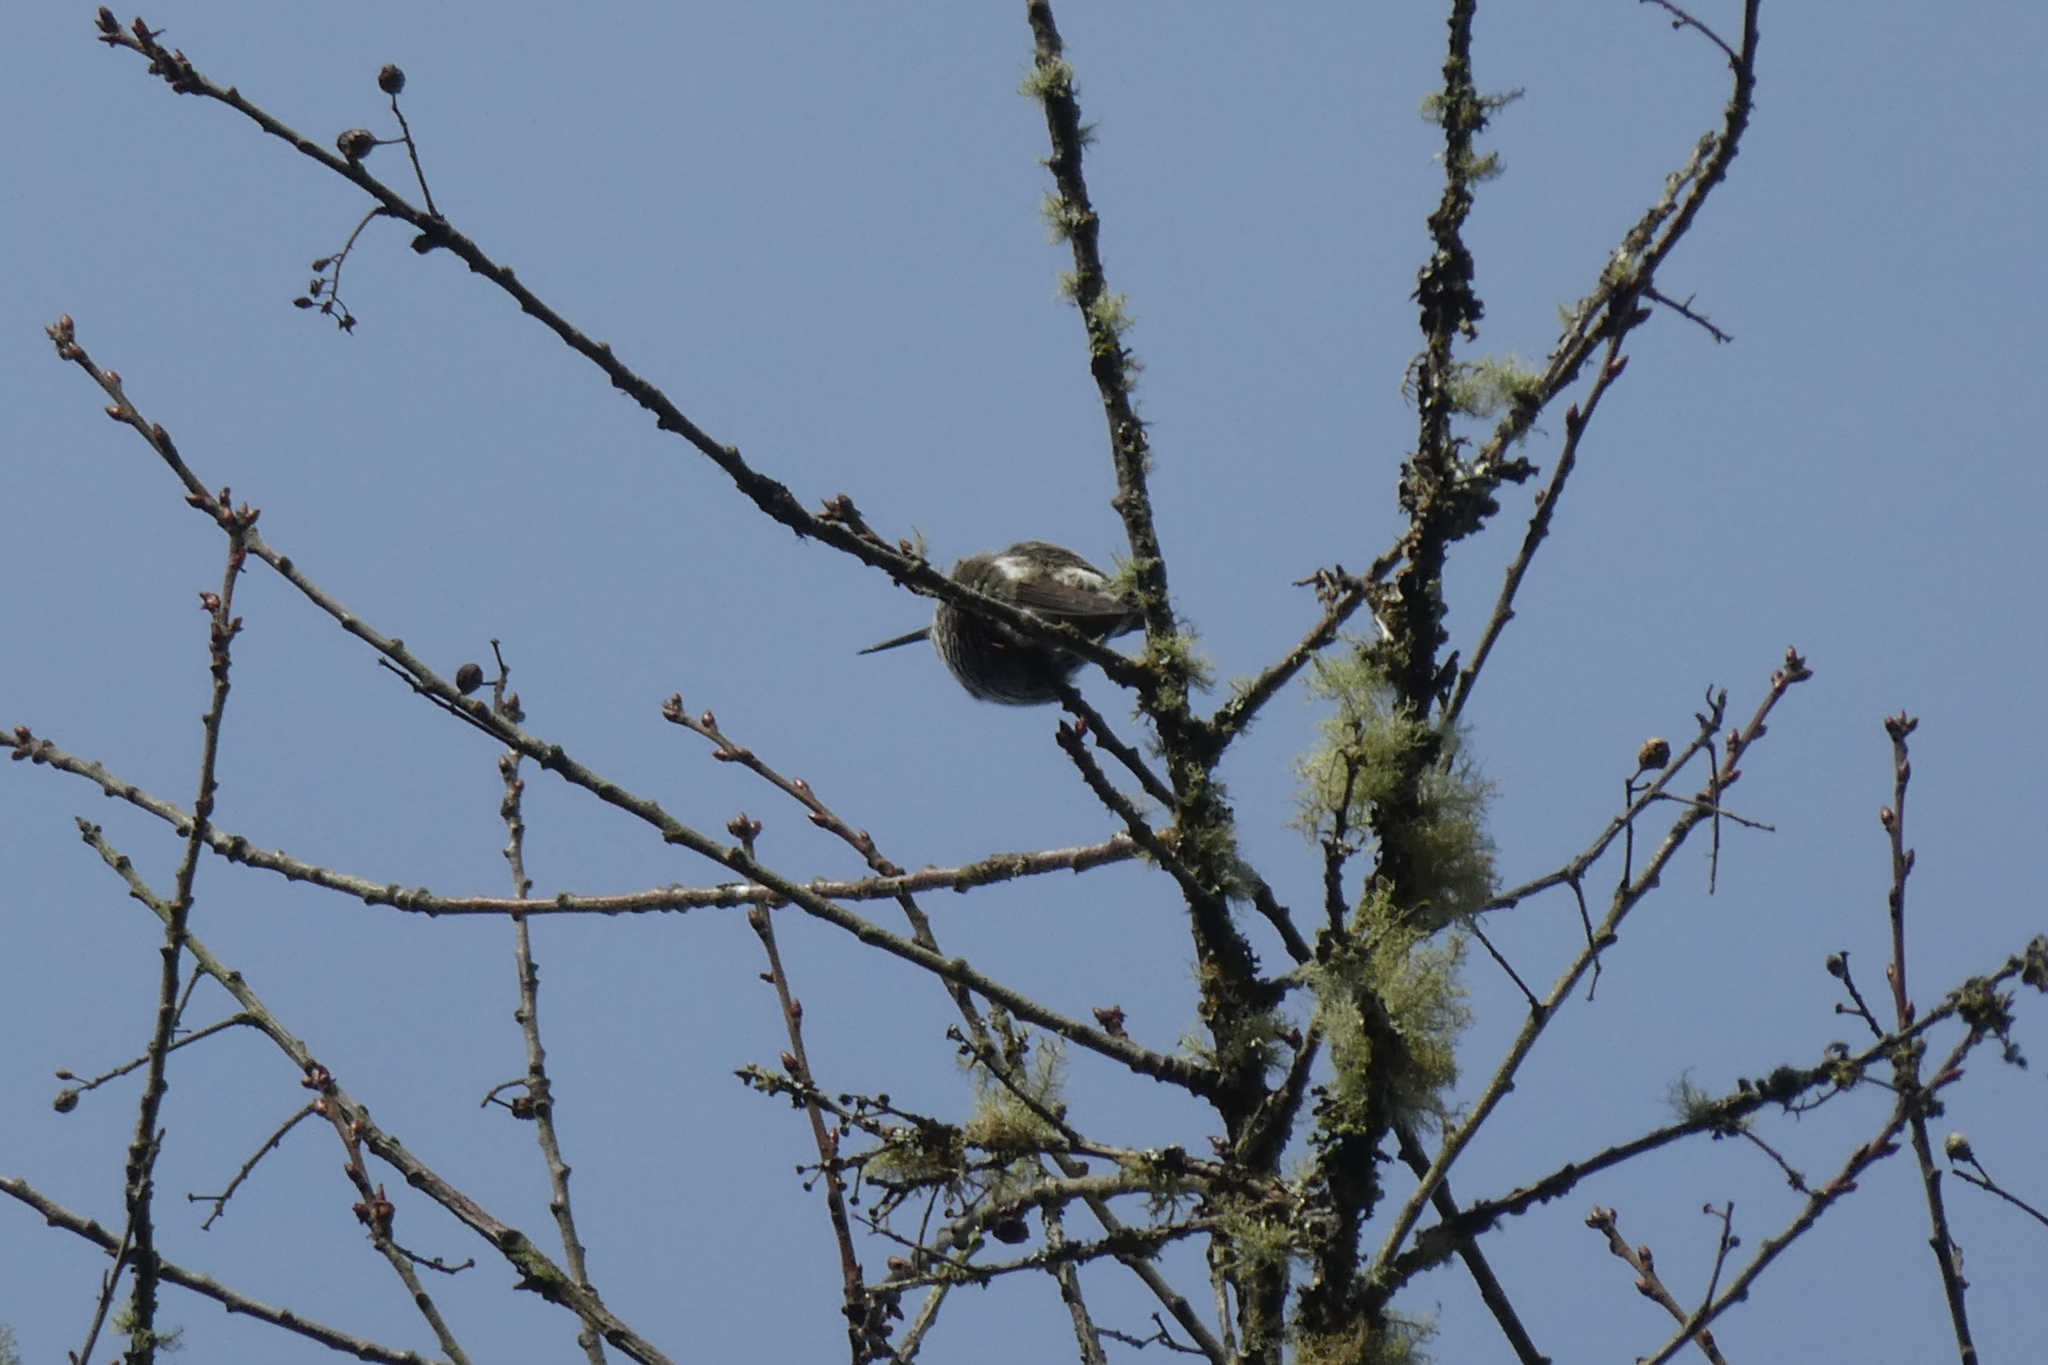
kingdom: Animalia
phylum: Chordata
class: Aves
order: Apodiformes
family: Trochilidae
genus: Calypte
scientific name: Calypte anna
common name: Anna's hummingbird
